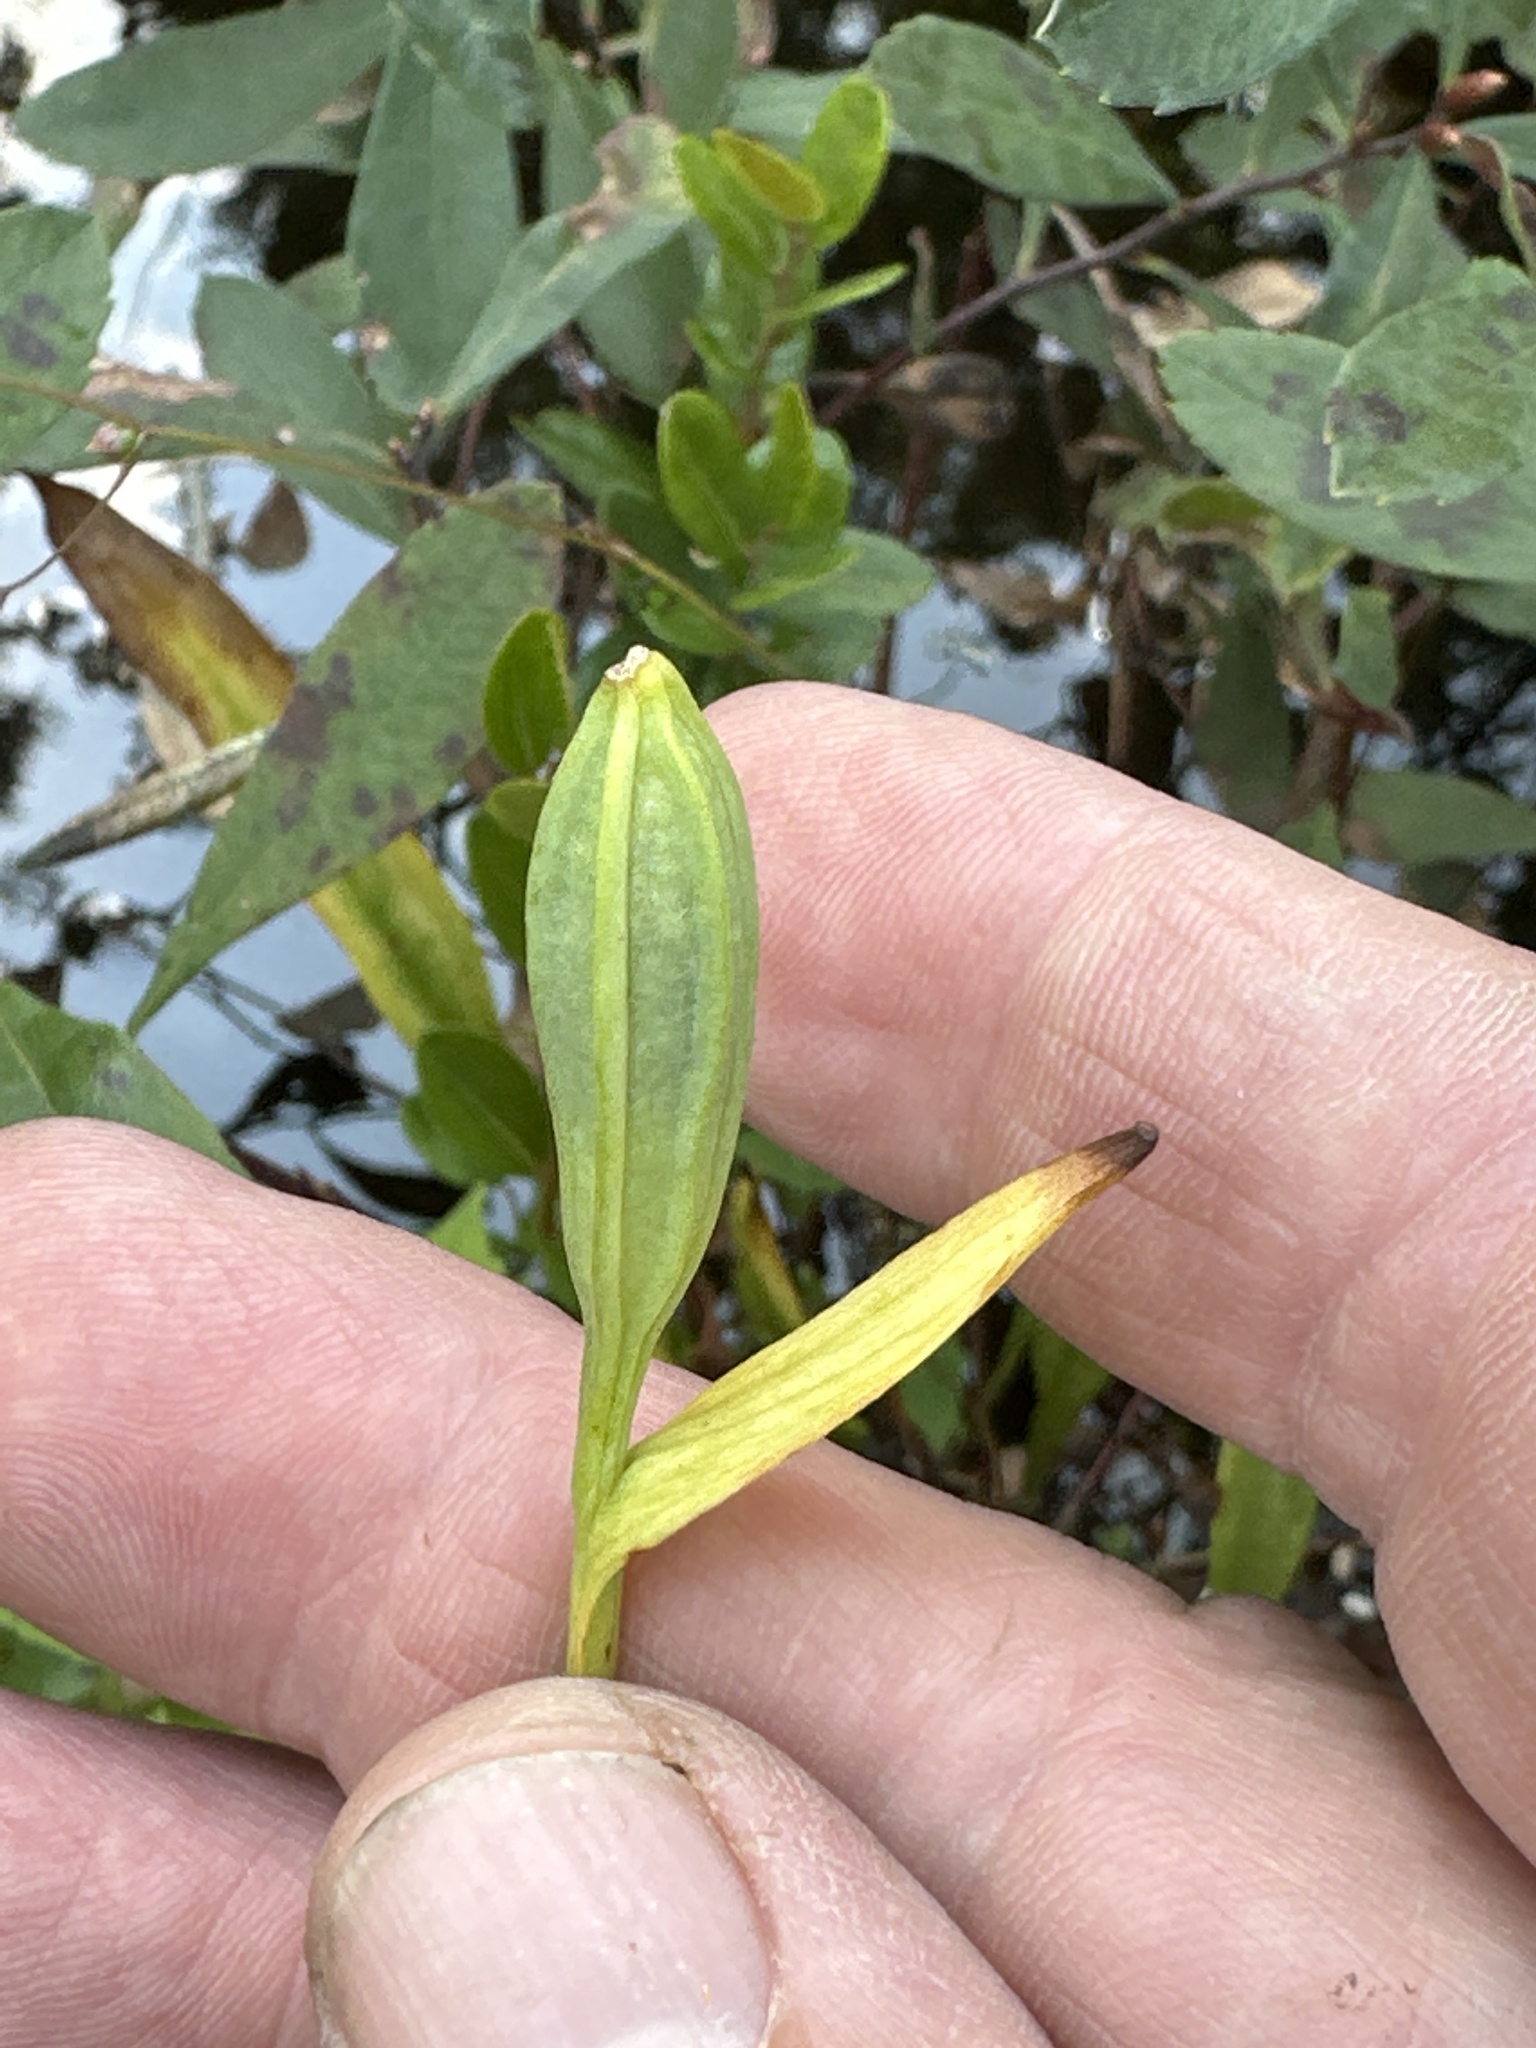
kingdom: Plantae
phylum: Tracheophyta
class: Liliopsida
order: Asparagales
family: Orchidaceae
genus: Pogonia
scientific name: Pogonia ophioglossoides
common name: Rose pogonia
